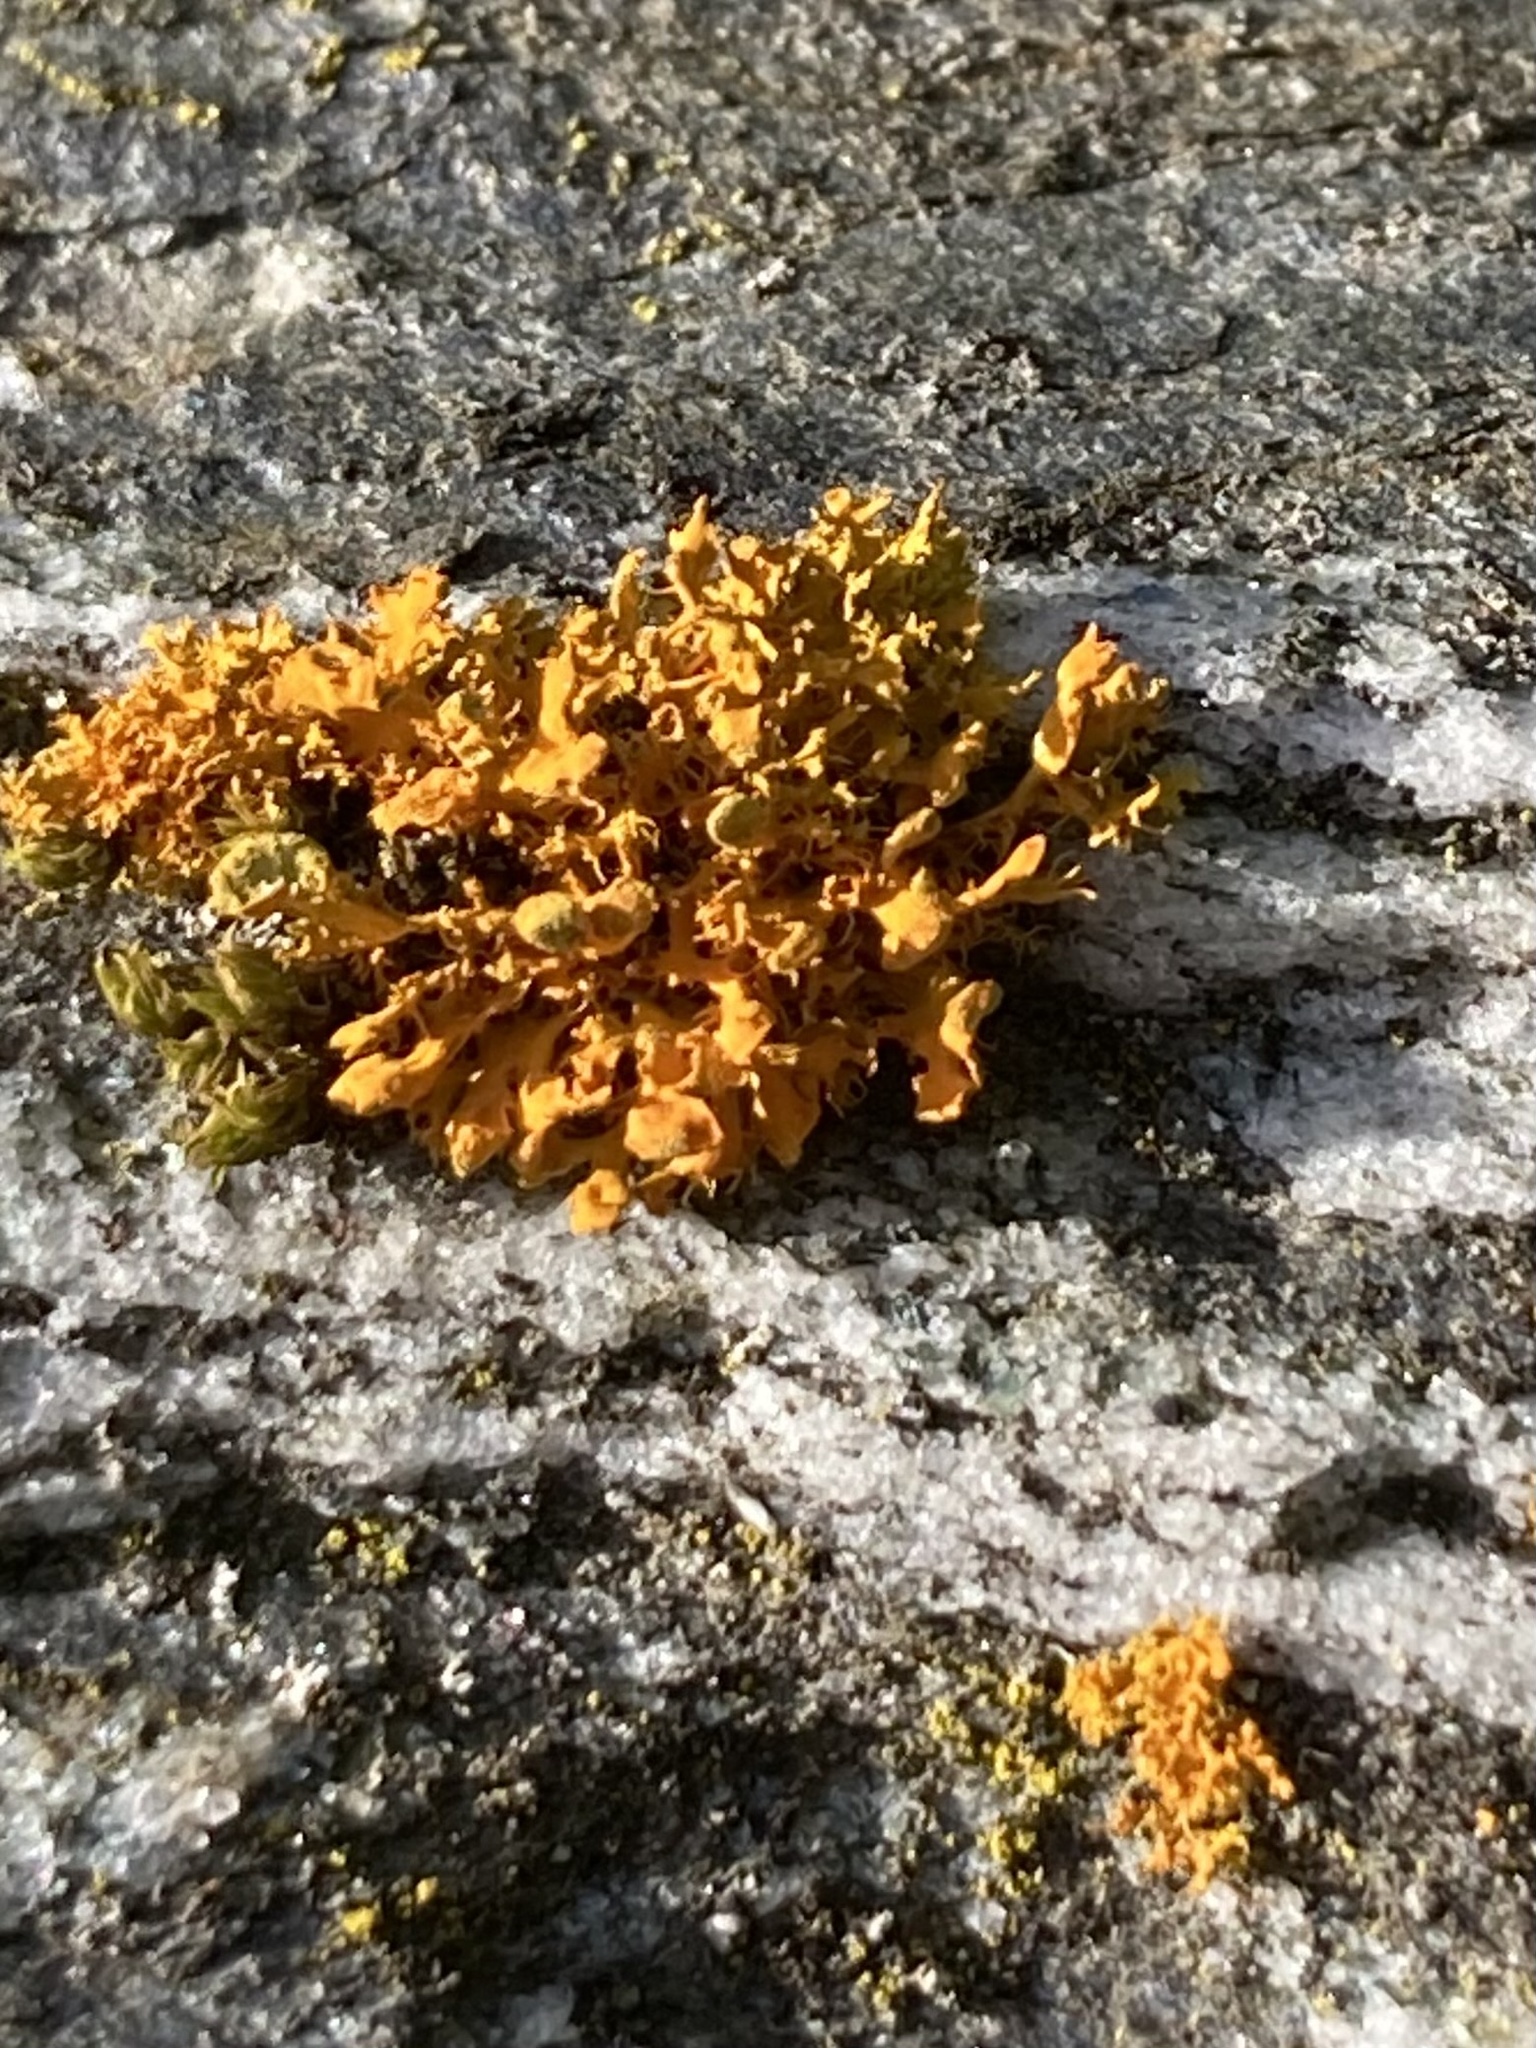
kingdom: Fungi
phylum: Ascomycota
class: Lecanoromycetes
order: Teloschistales
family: Teloschistaceae
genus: Teloschistes
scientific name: Teloschistes velifer
